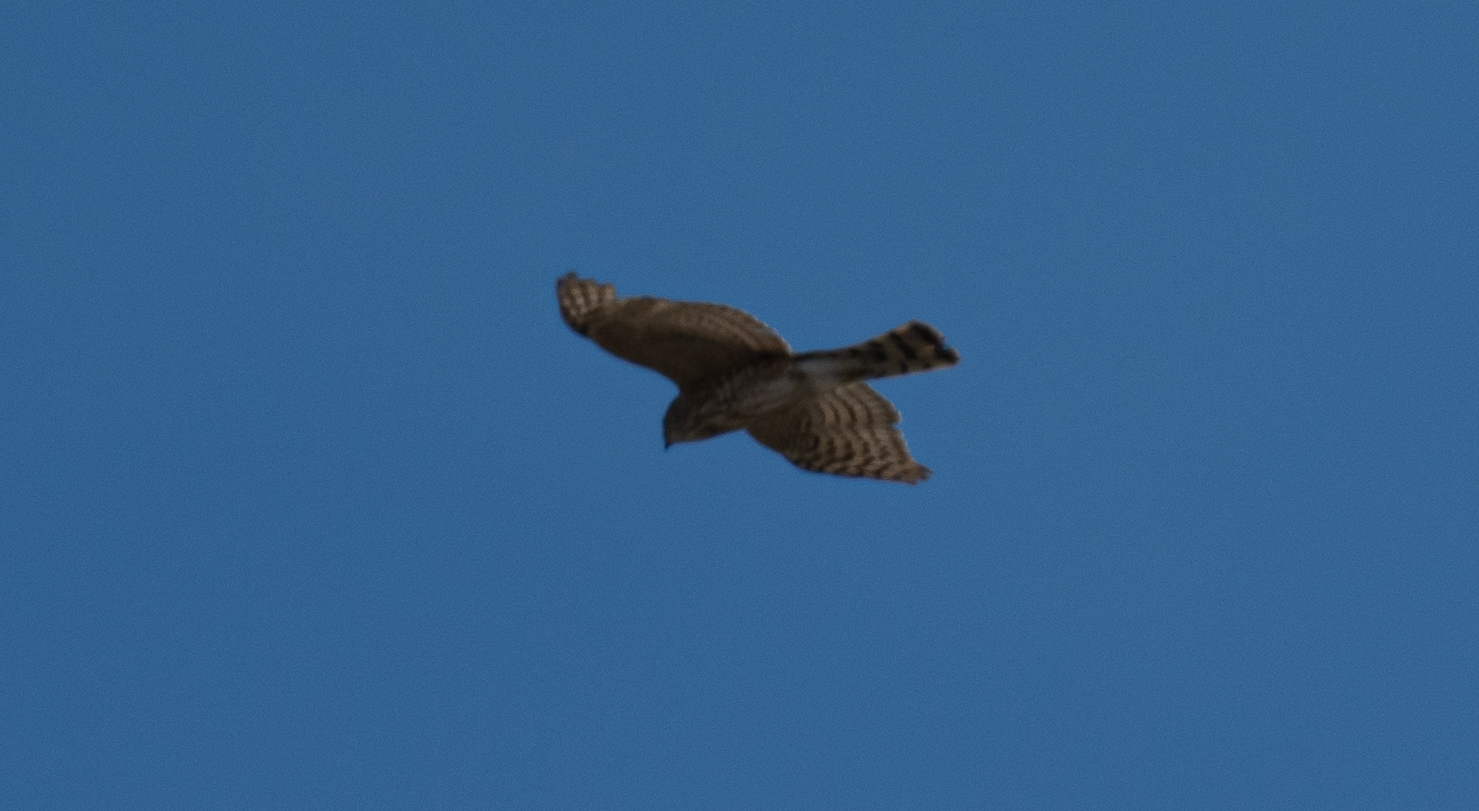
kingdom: Animalia
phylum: Chordata
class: Aves
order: Accipitriformes
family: Accipitridae
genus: Accipiter
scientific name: Accipiter striatus
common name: Sharp-shinned hawk
